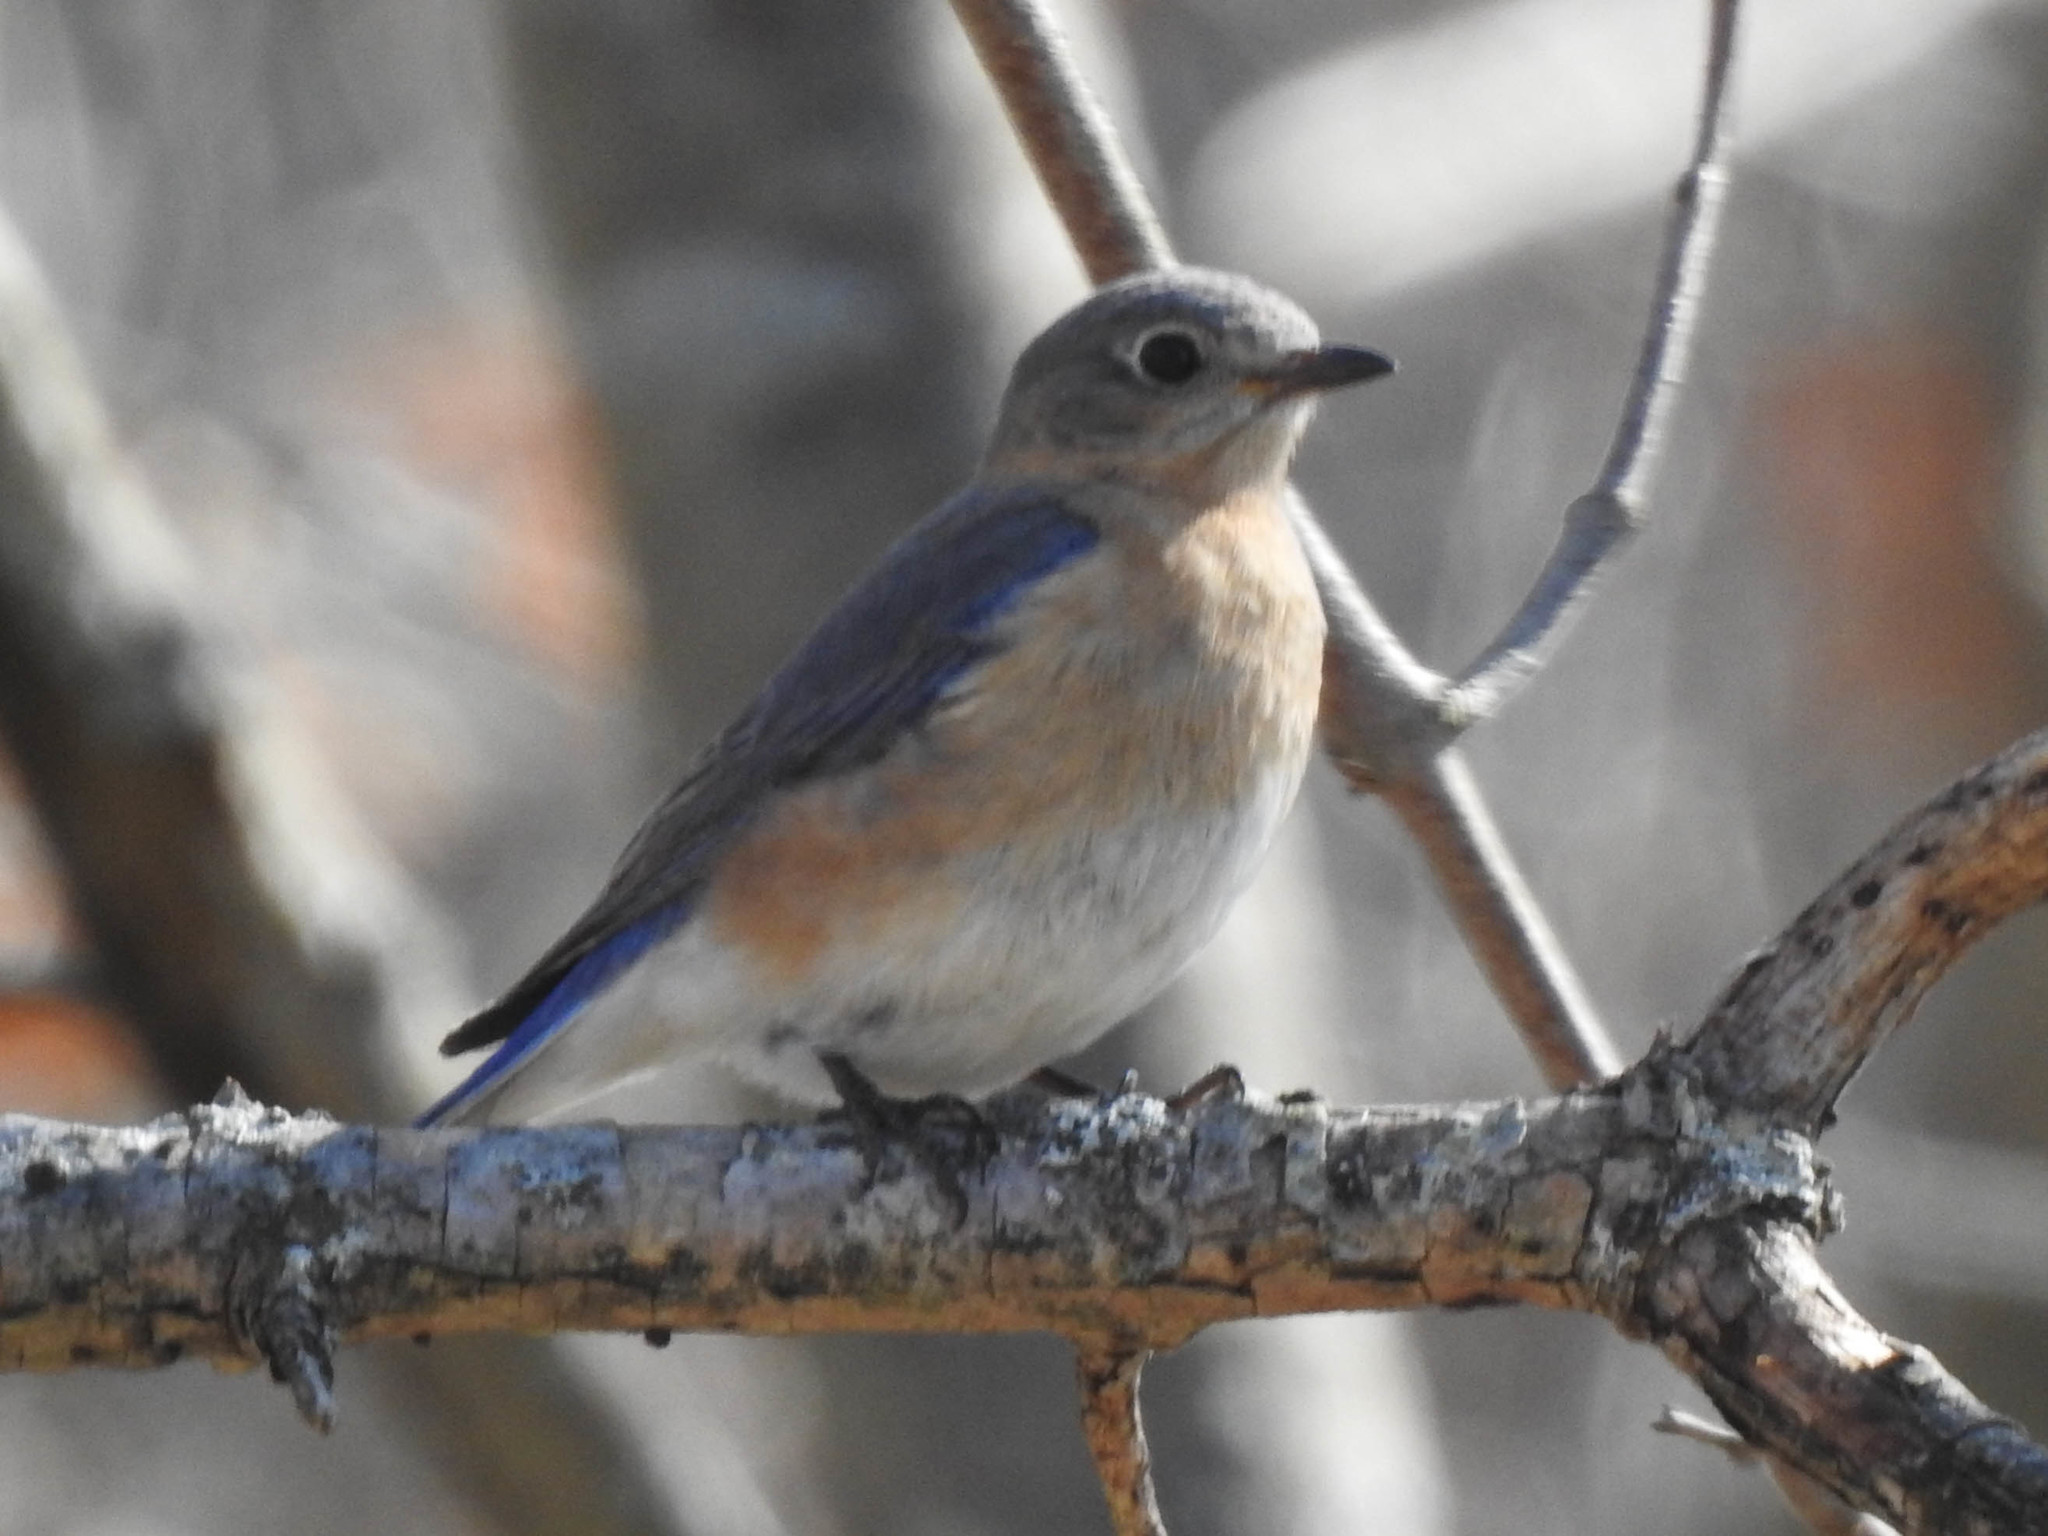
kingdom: Animalia
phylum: Chordata
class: Aves
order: Passeriformes
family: Turdidae
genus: Sialia
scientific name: Sialia sialis
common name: Eastern bluebird
